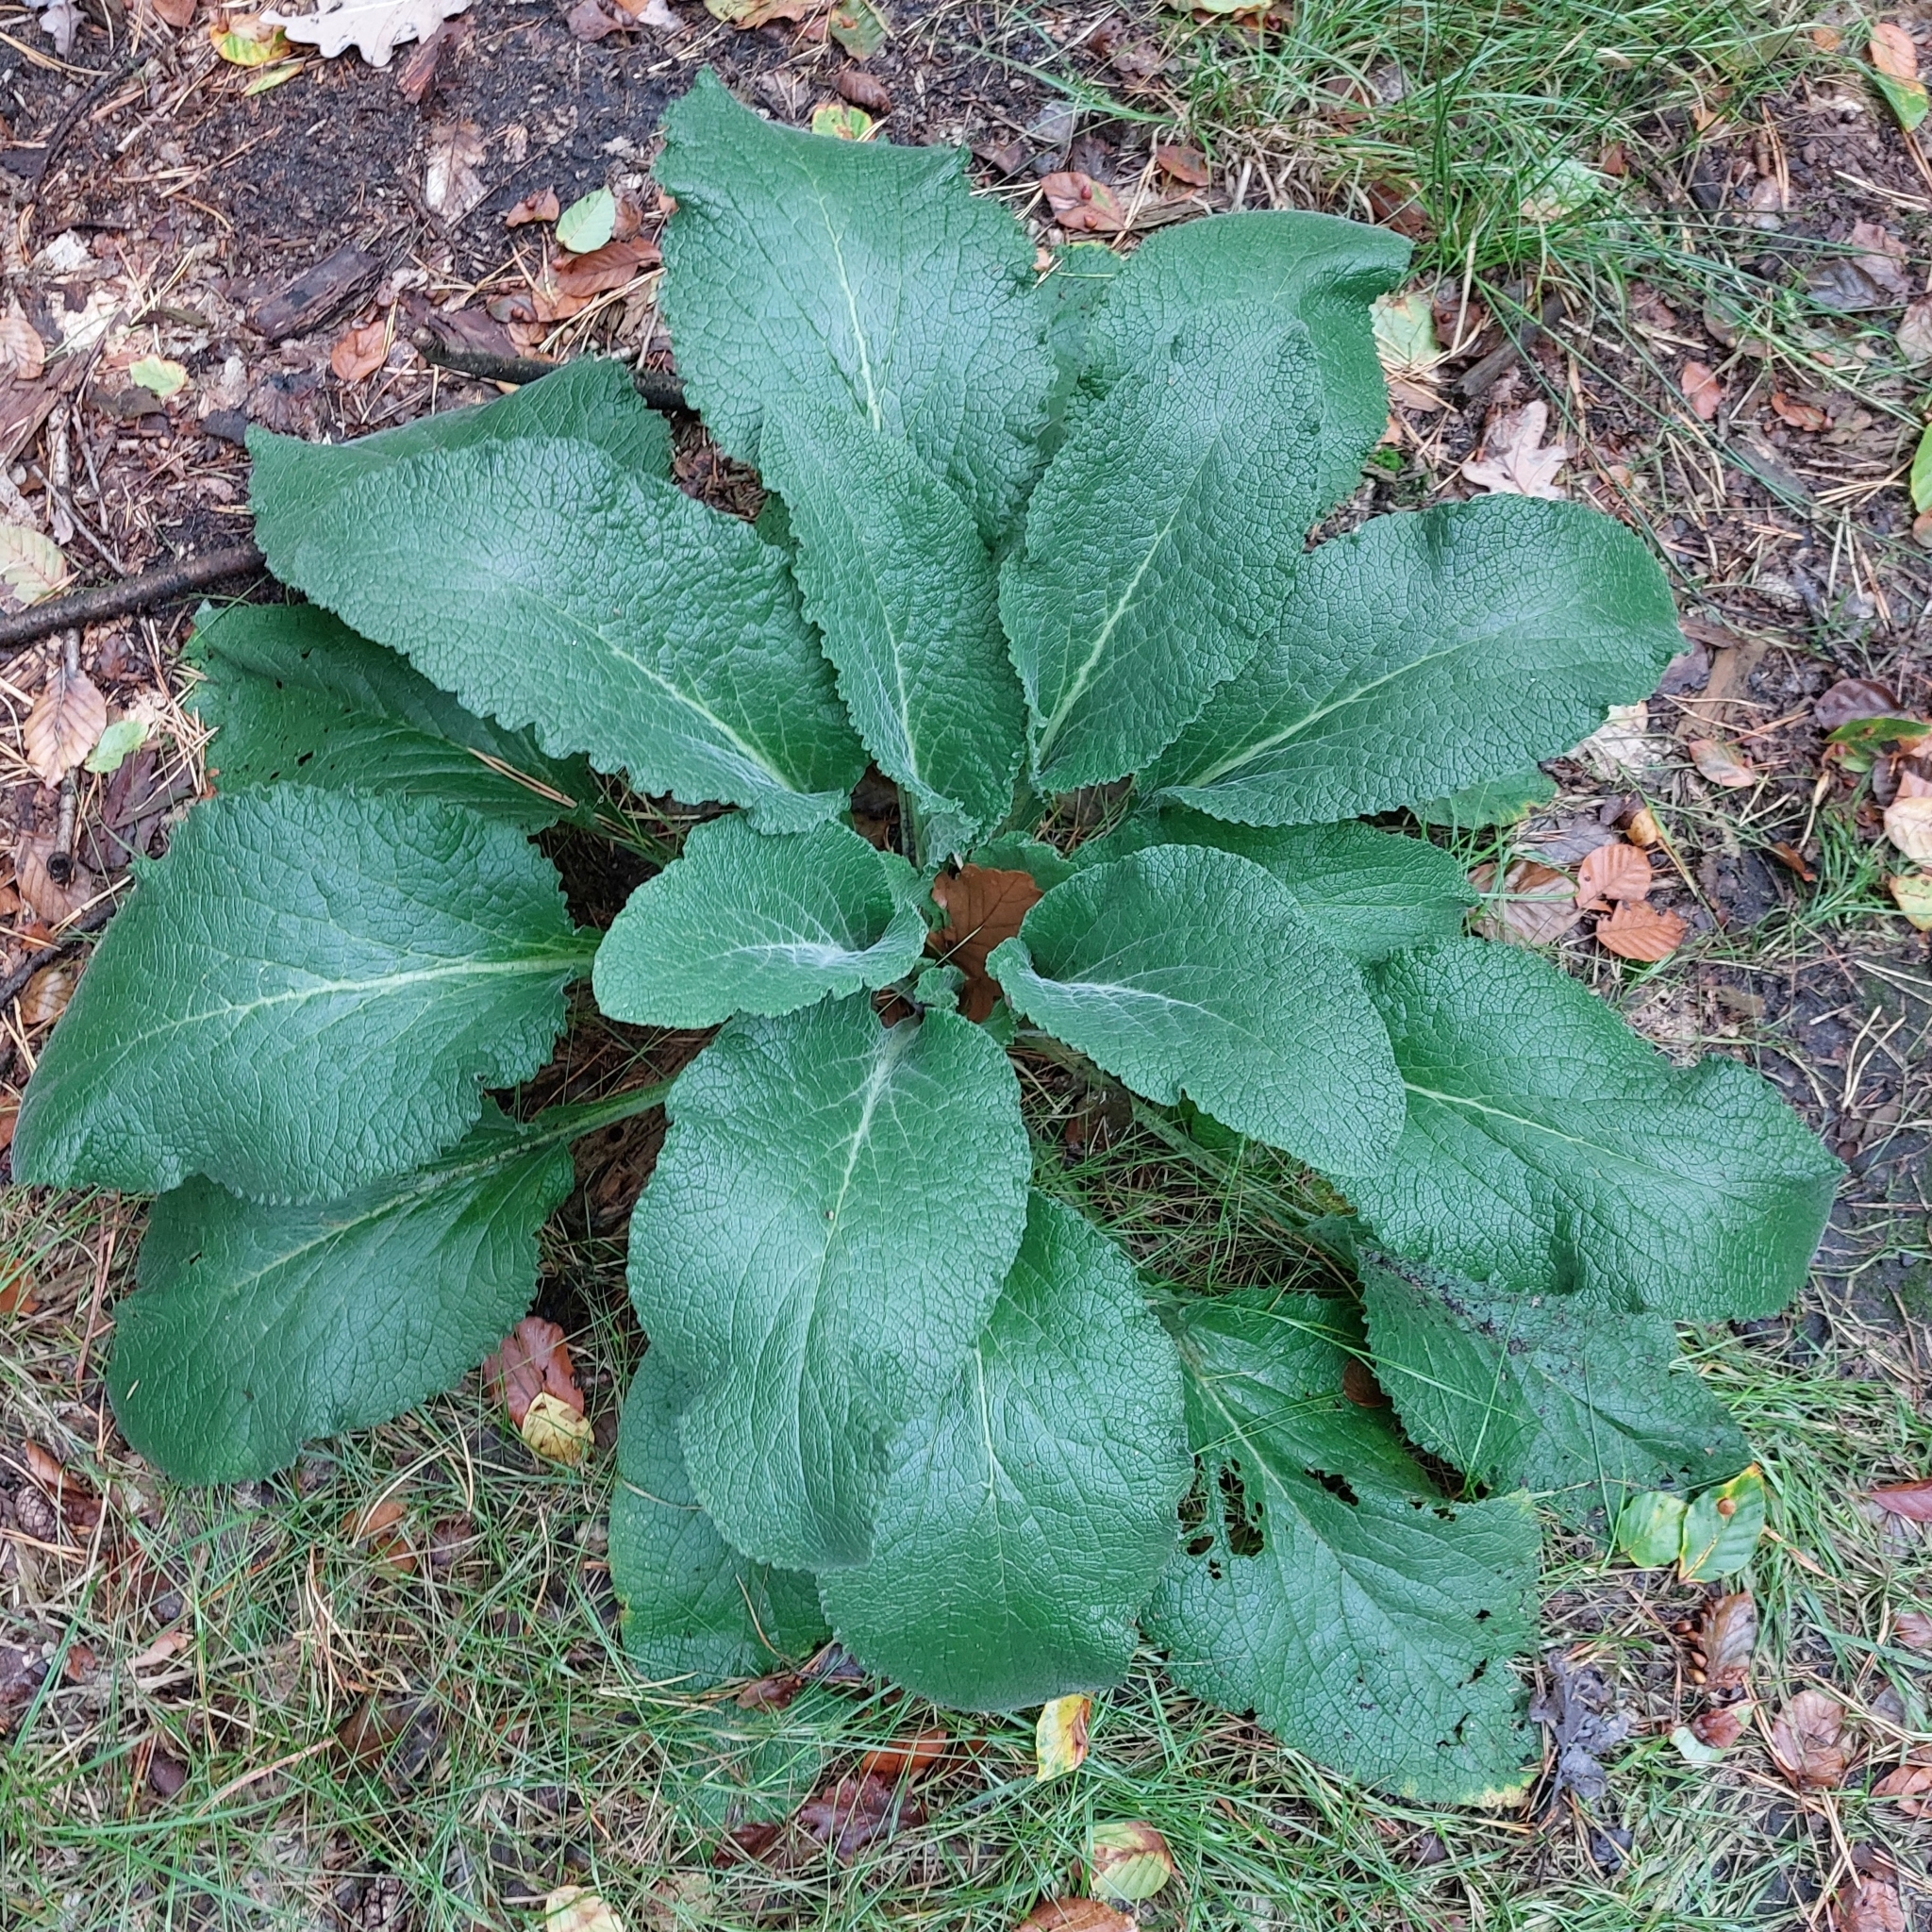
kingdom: Plantae
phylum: Tracheophyta
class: Magnoliopsida
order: Lamiales
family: Plantaginaceae
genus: Digitalis
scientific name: Digitalis purpurea
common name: Foxglove
